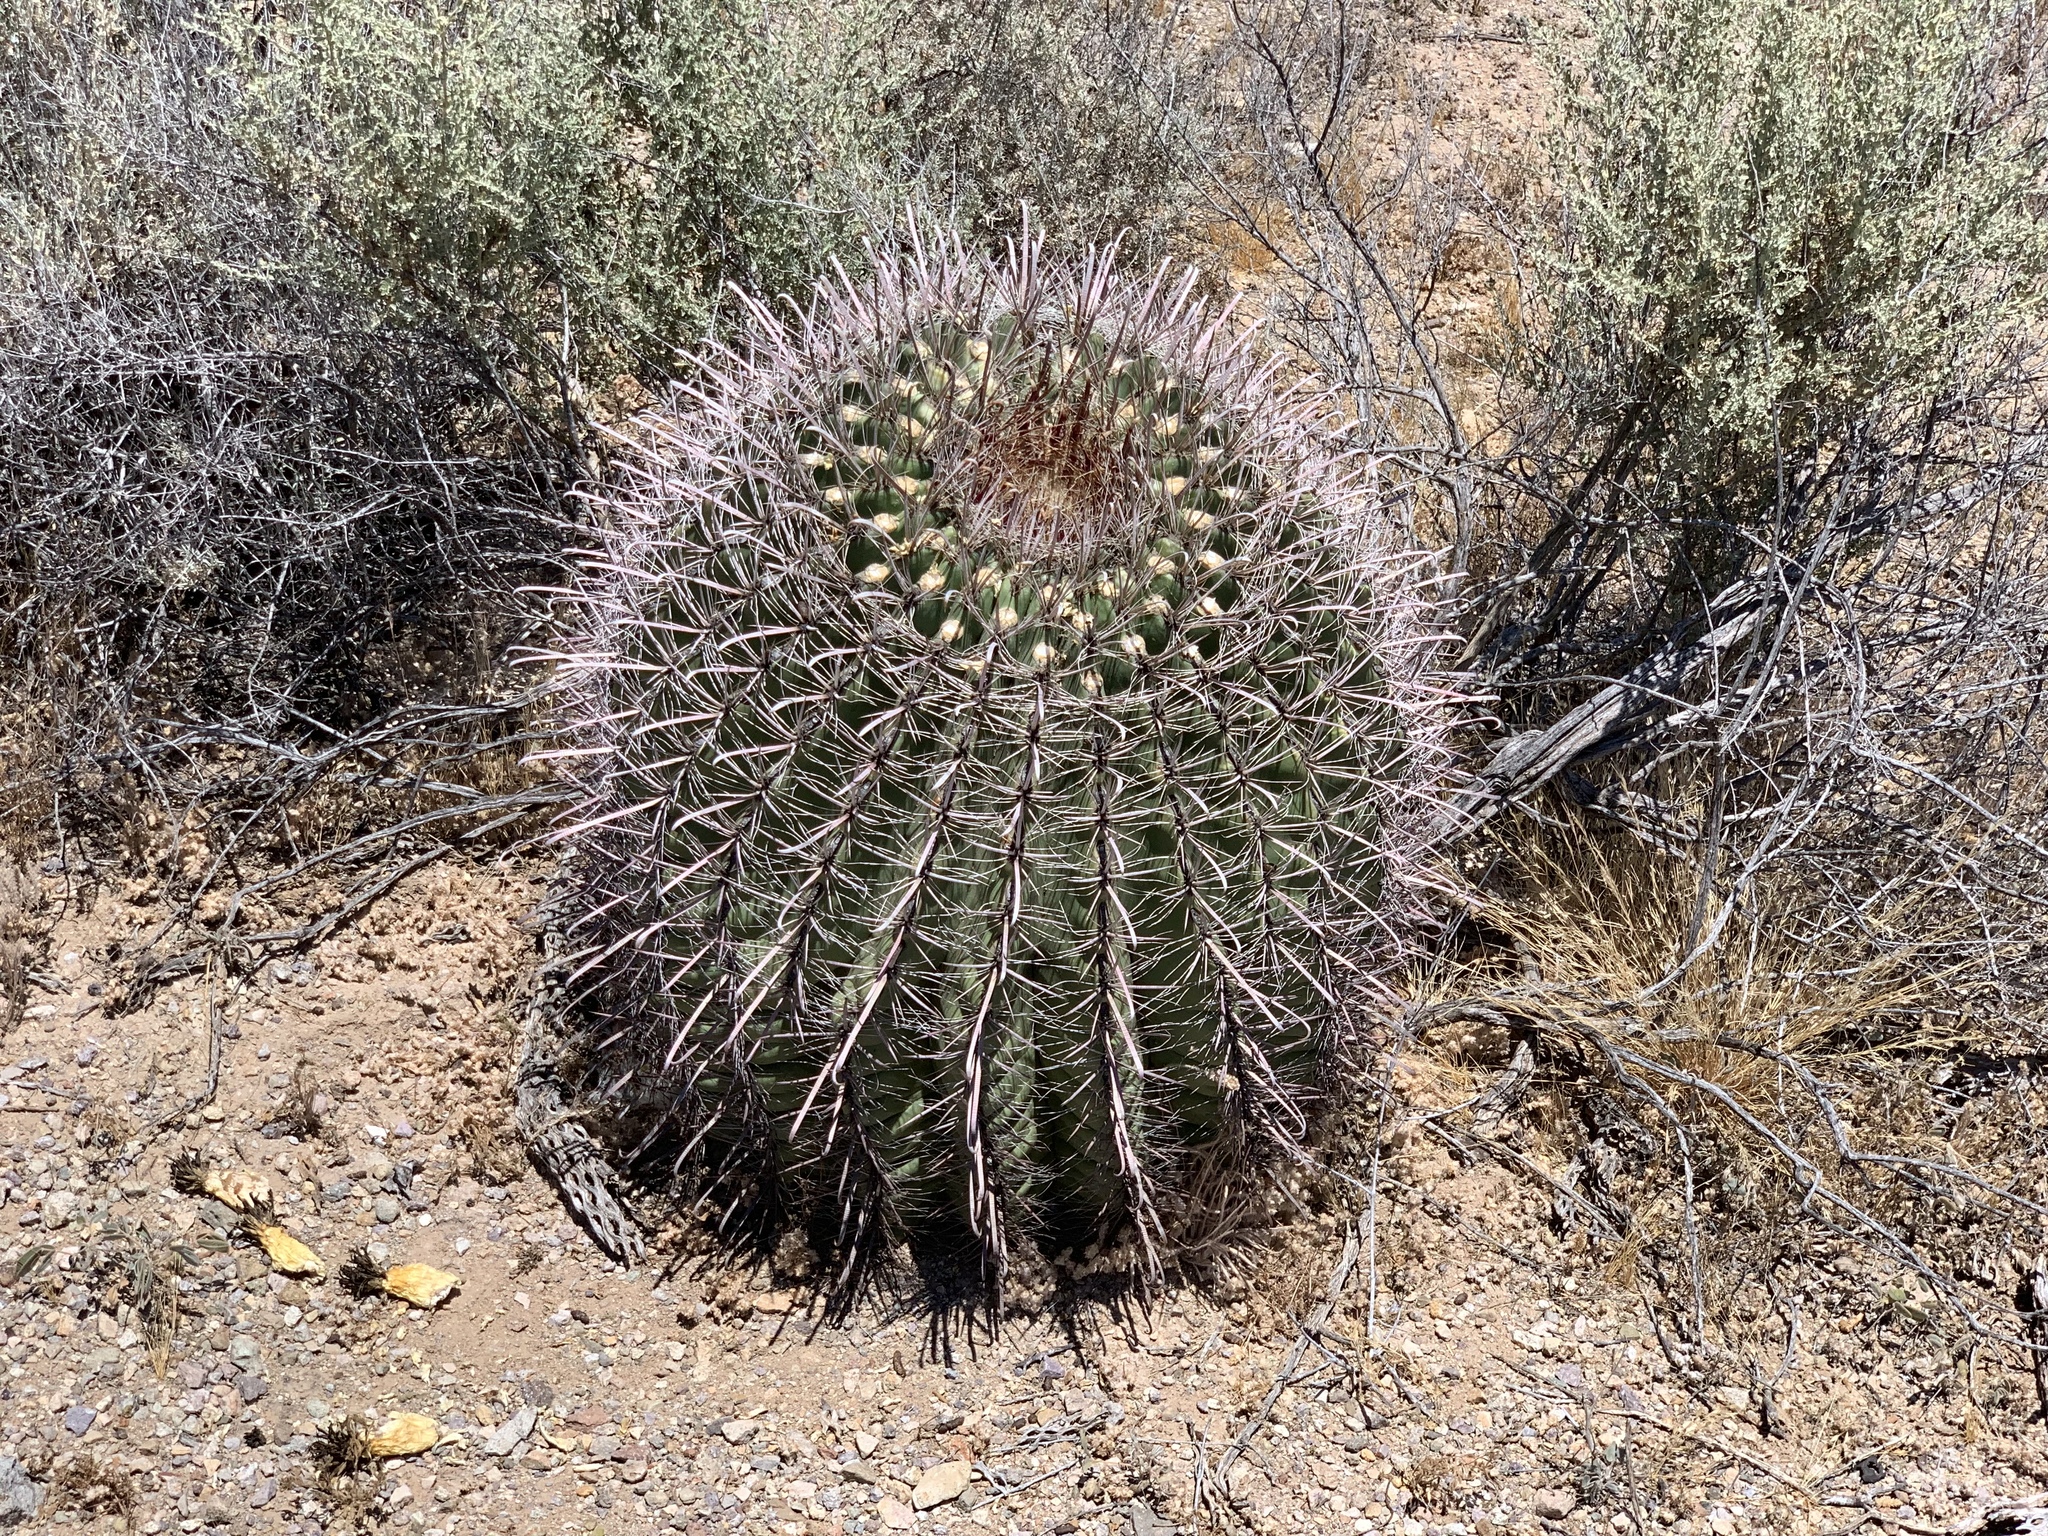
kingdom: Plantae
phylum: Tracheophyta
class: Magnoliopsida
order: Caryophyllales
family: Cactaceae
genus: Ferocactus
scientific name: Ferocactus wislizeni
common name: Candy barrel cactus
